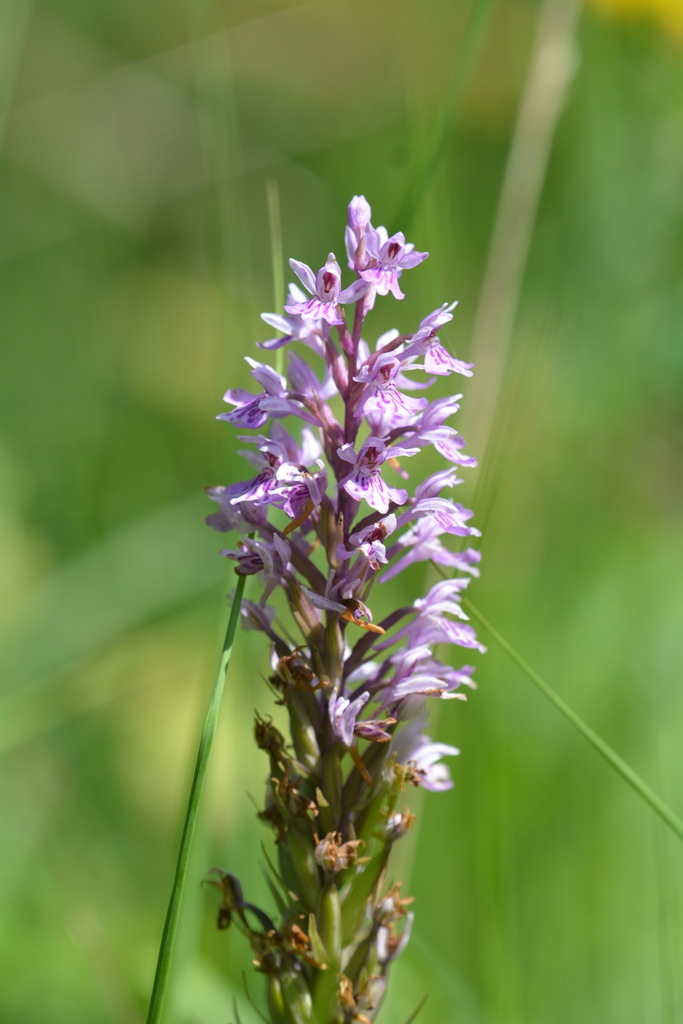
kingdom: Plantae
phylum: Tracheophyta
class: Liliopsida
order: Asparagales
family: Orchidaceae
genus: Dactylorhiza
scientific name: Dactylorhiza maculata
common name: Heath spotted-orchid
